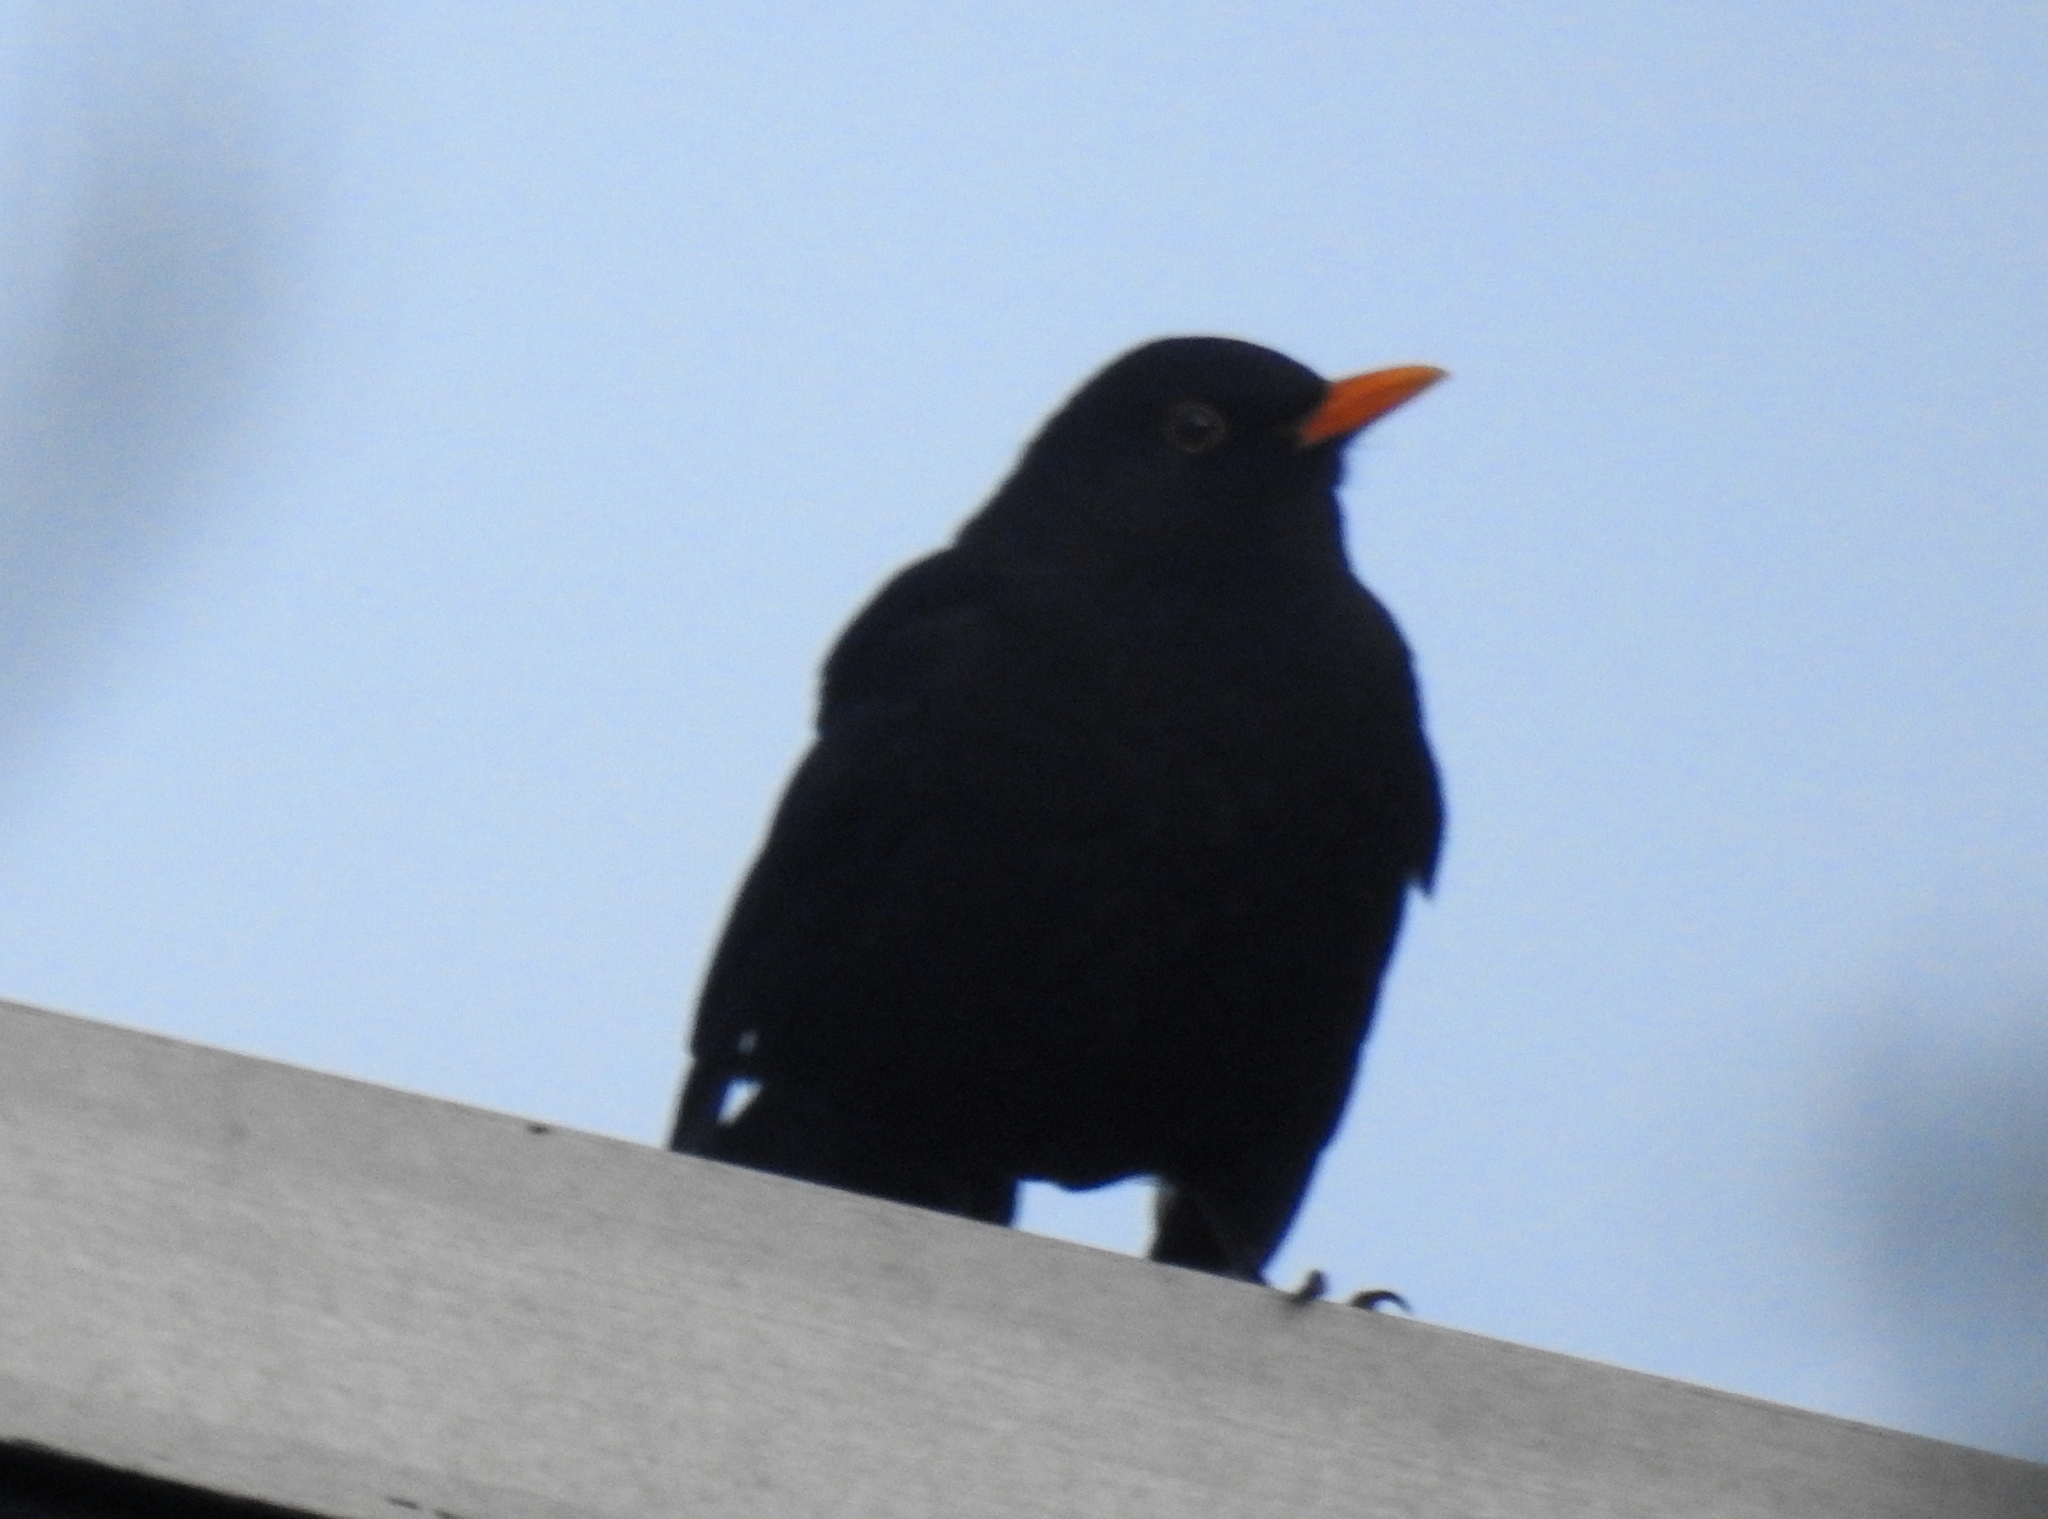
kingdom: Animalia
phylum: Chordata
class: Aves
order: Passeriformes
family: Turdidae
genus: Turdus
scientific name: Turdus merula
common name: Common blackbird
